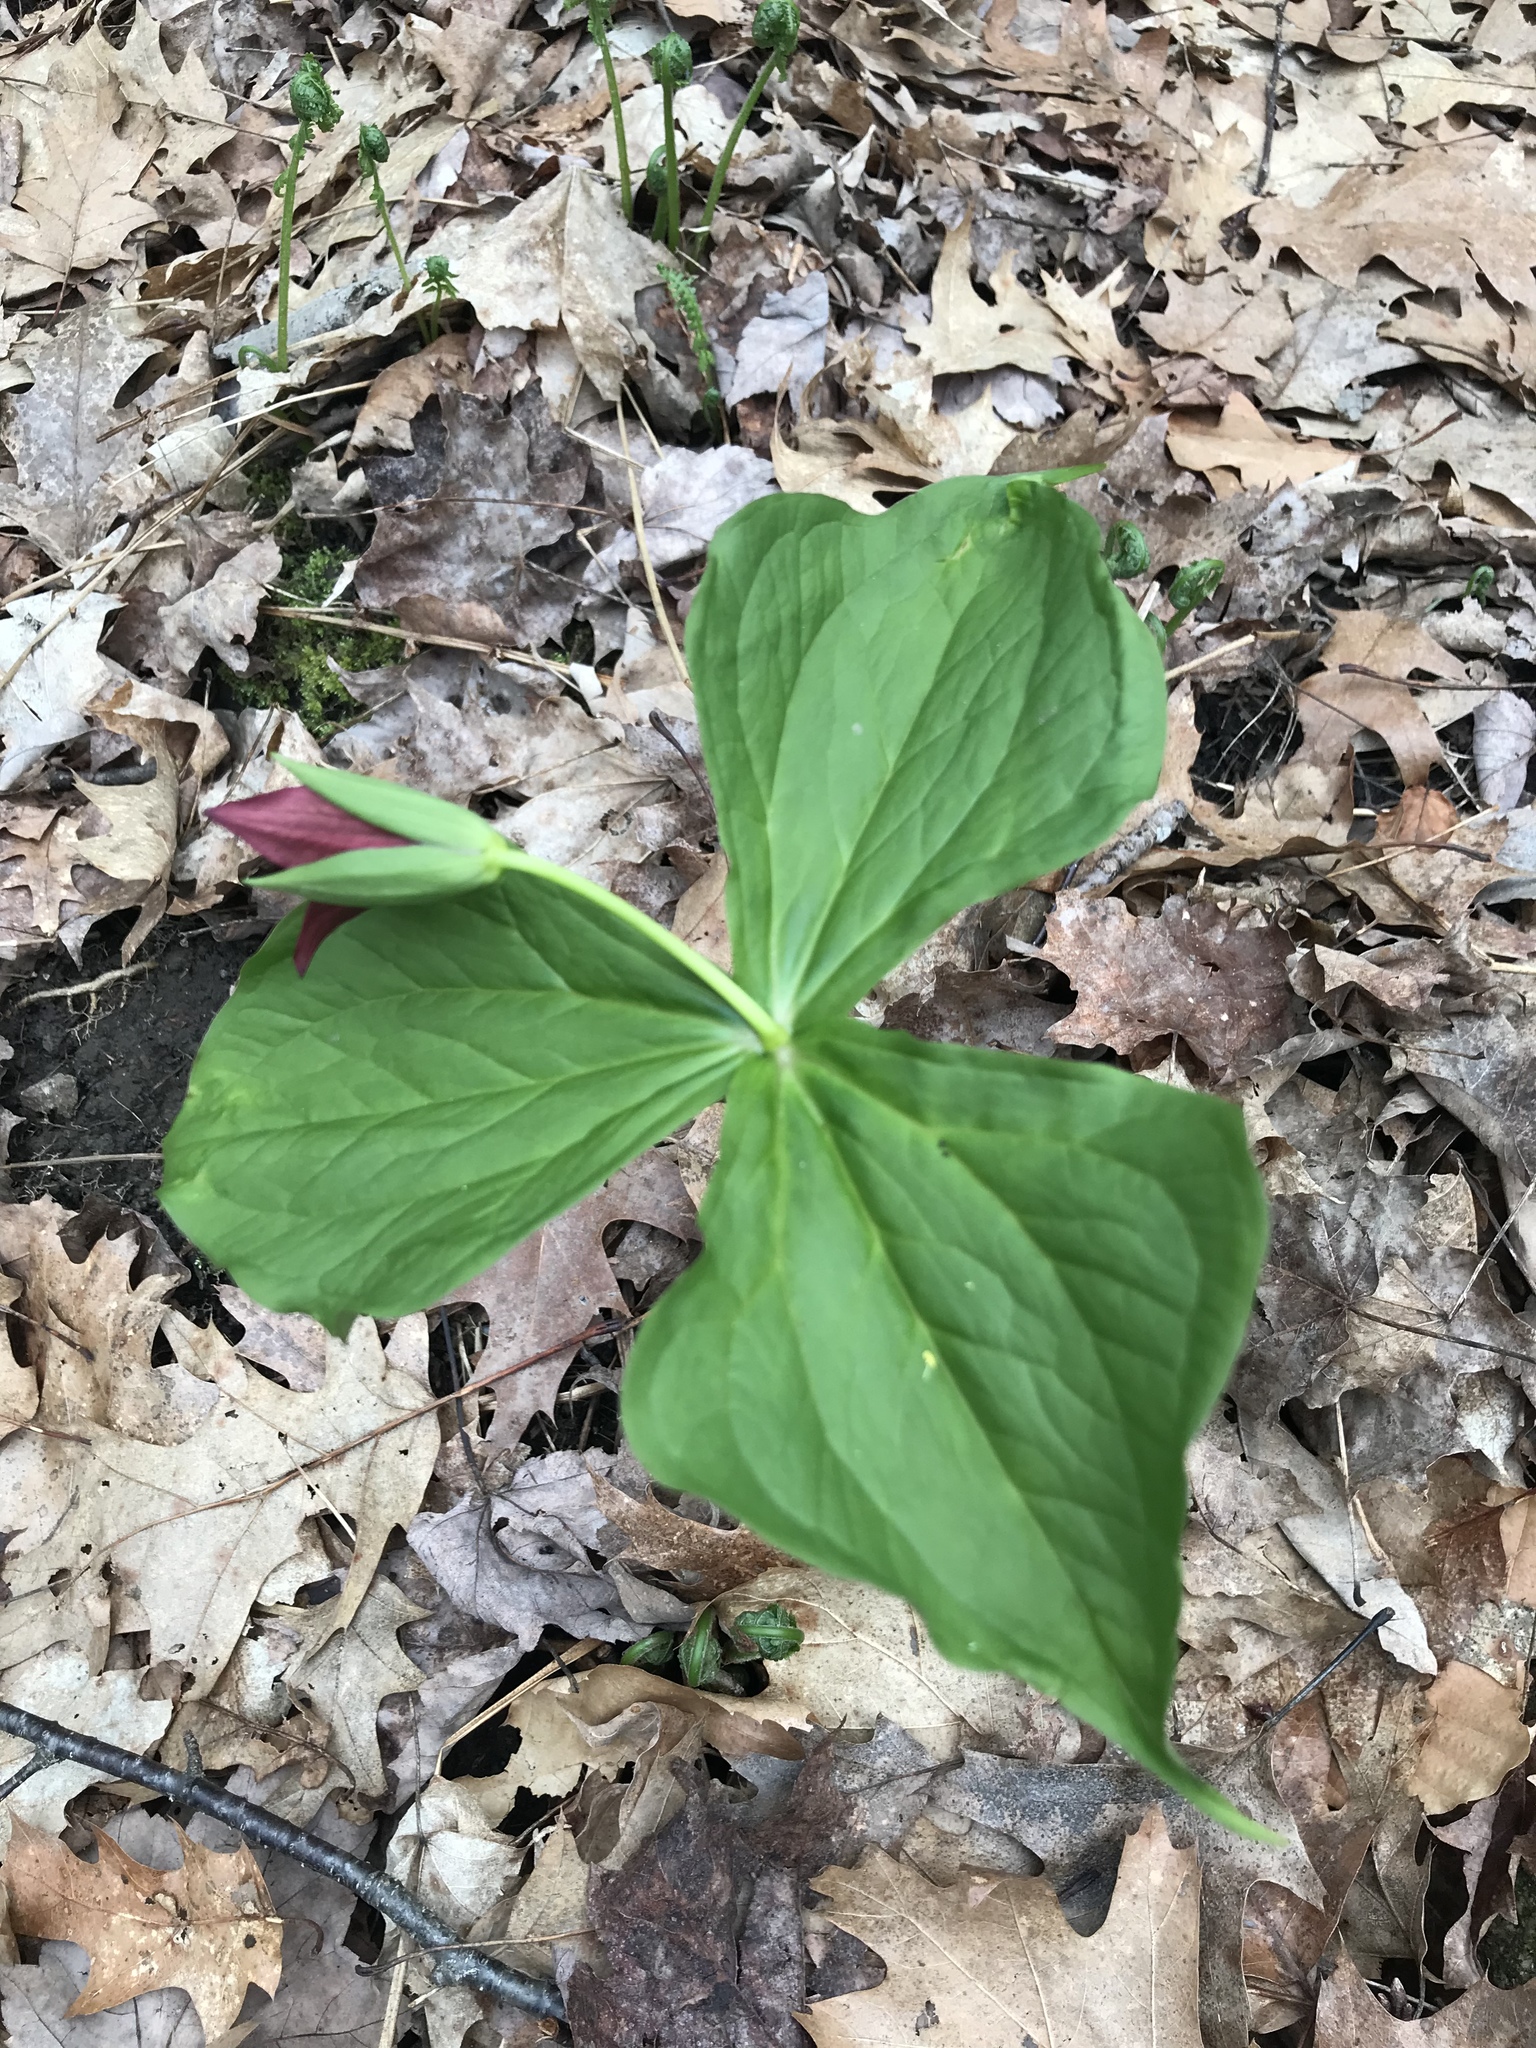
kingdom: Plantae
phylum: Tracheophyta
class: Liliopsida
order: Liliales
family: Melanthiaceae
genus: Trillium
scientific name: Trillium erectum
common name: Purple trillium
